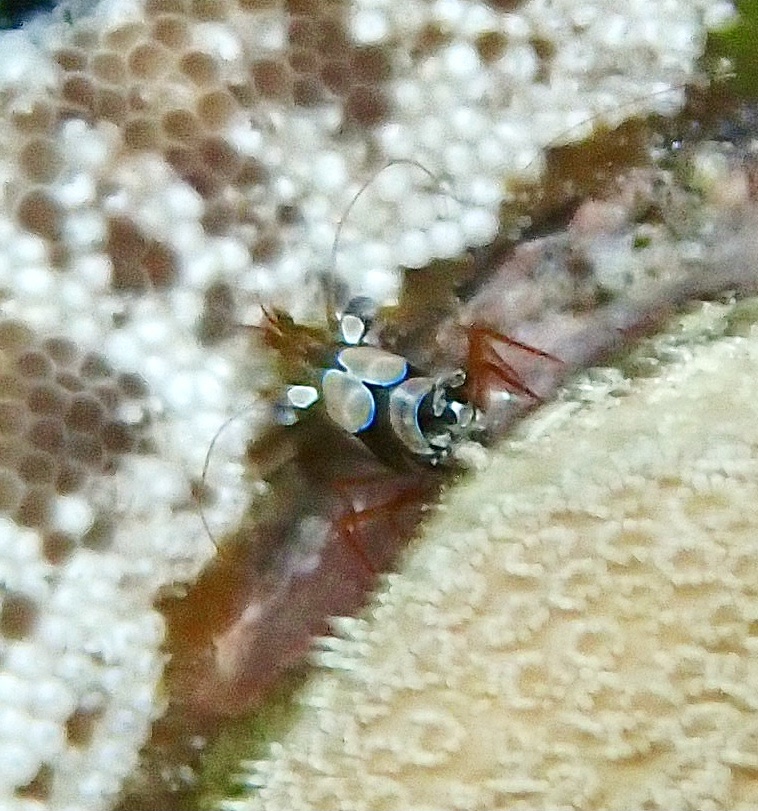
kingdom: Animalia
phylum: Arthropoda
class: Malacostraca
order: Decapoda
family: Thoridae
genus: Thor
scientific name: Thor amboinensis
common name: Squat anemone shrimp
